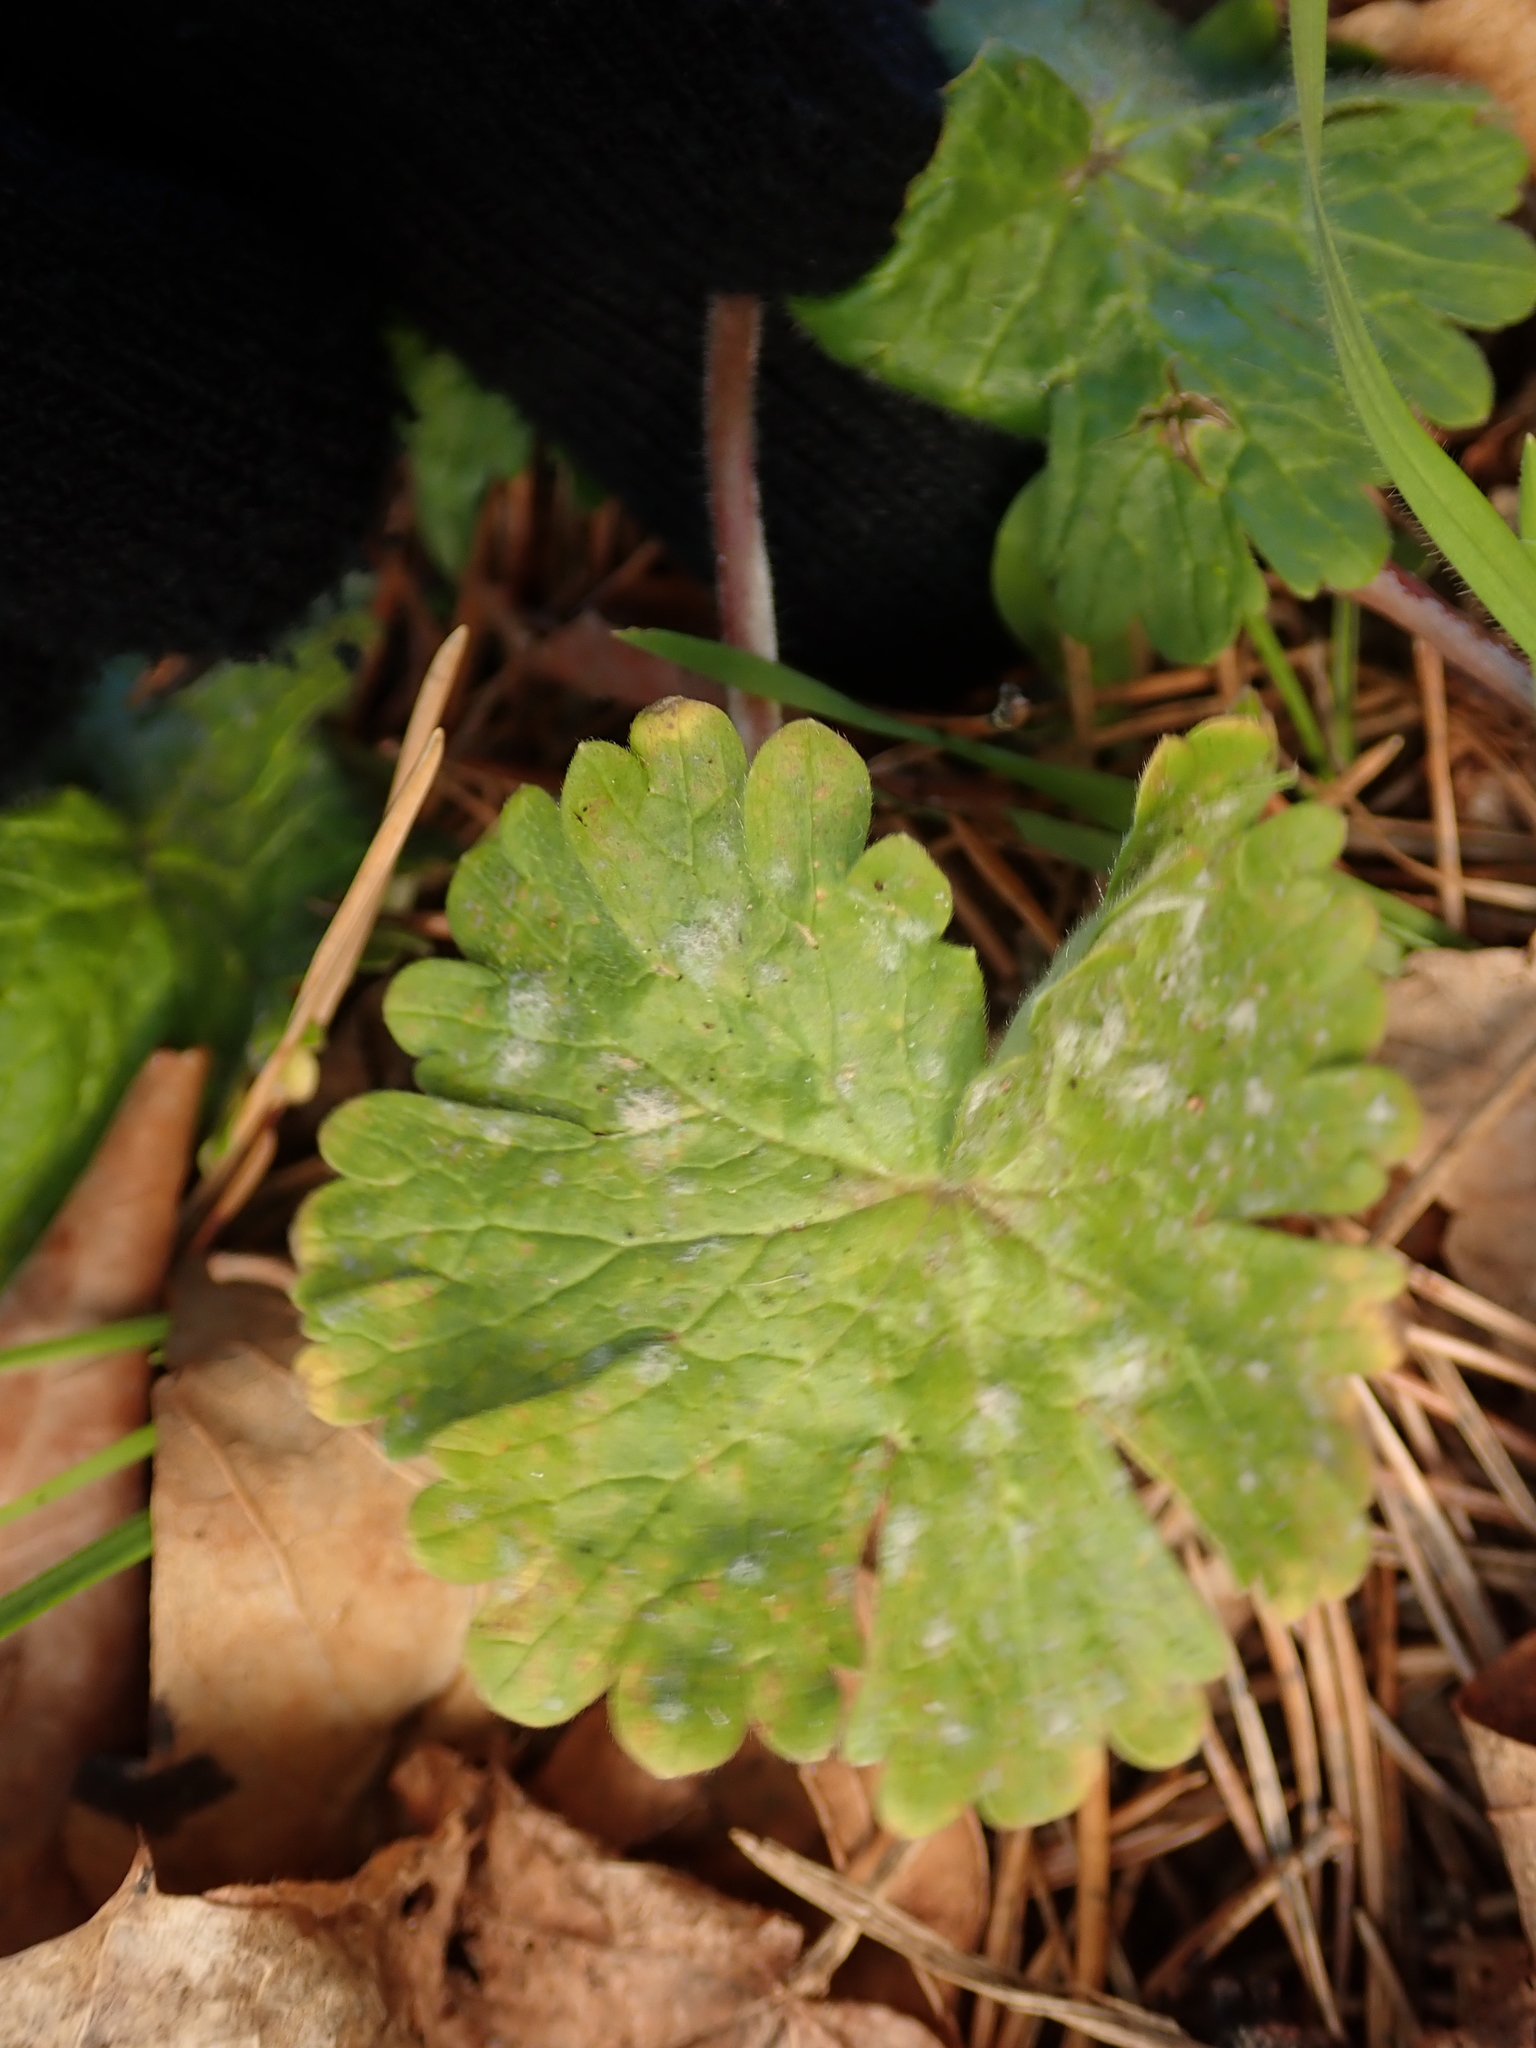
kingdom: Plantae
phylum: Tracheophyta
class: Magnoliopsida
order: Geraniales
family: Geraniaceae
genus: Geranium
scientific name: Geranium molle
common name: Dove's-foot crane's-bill
